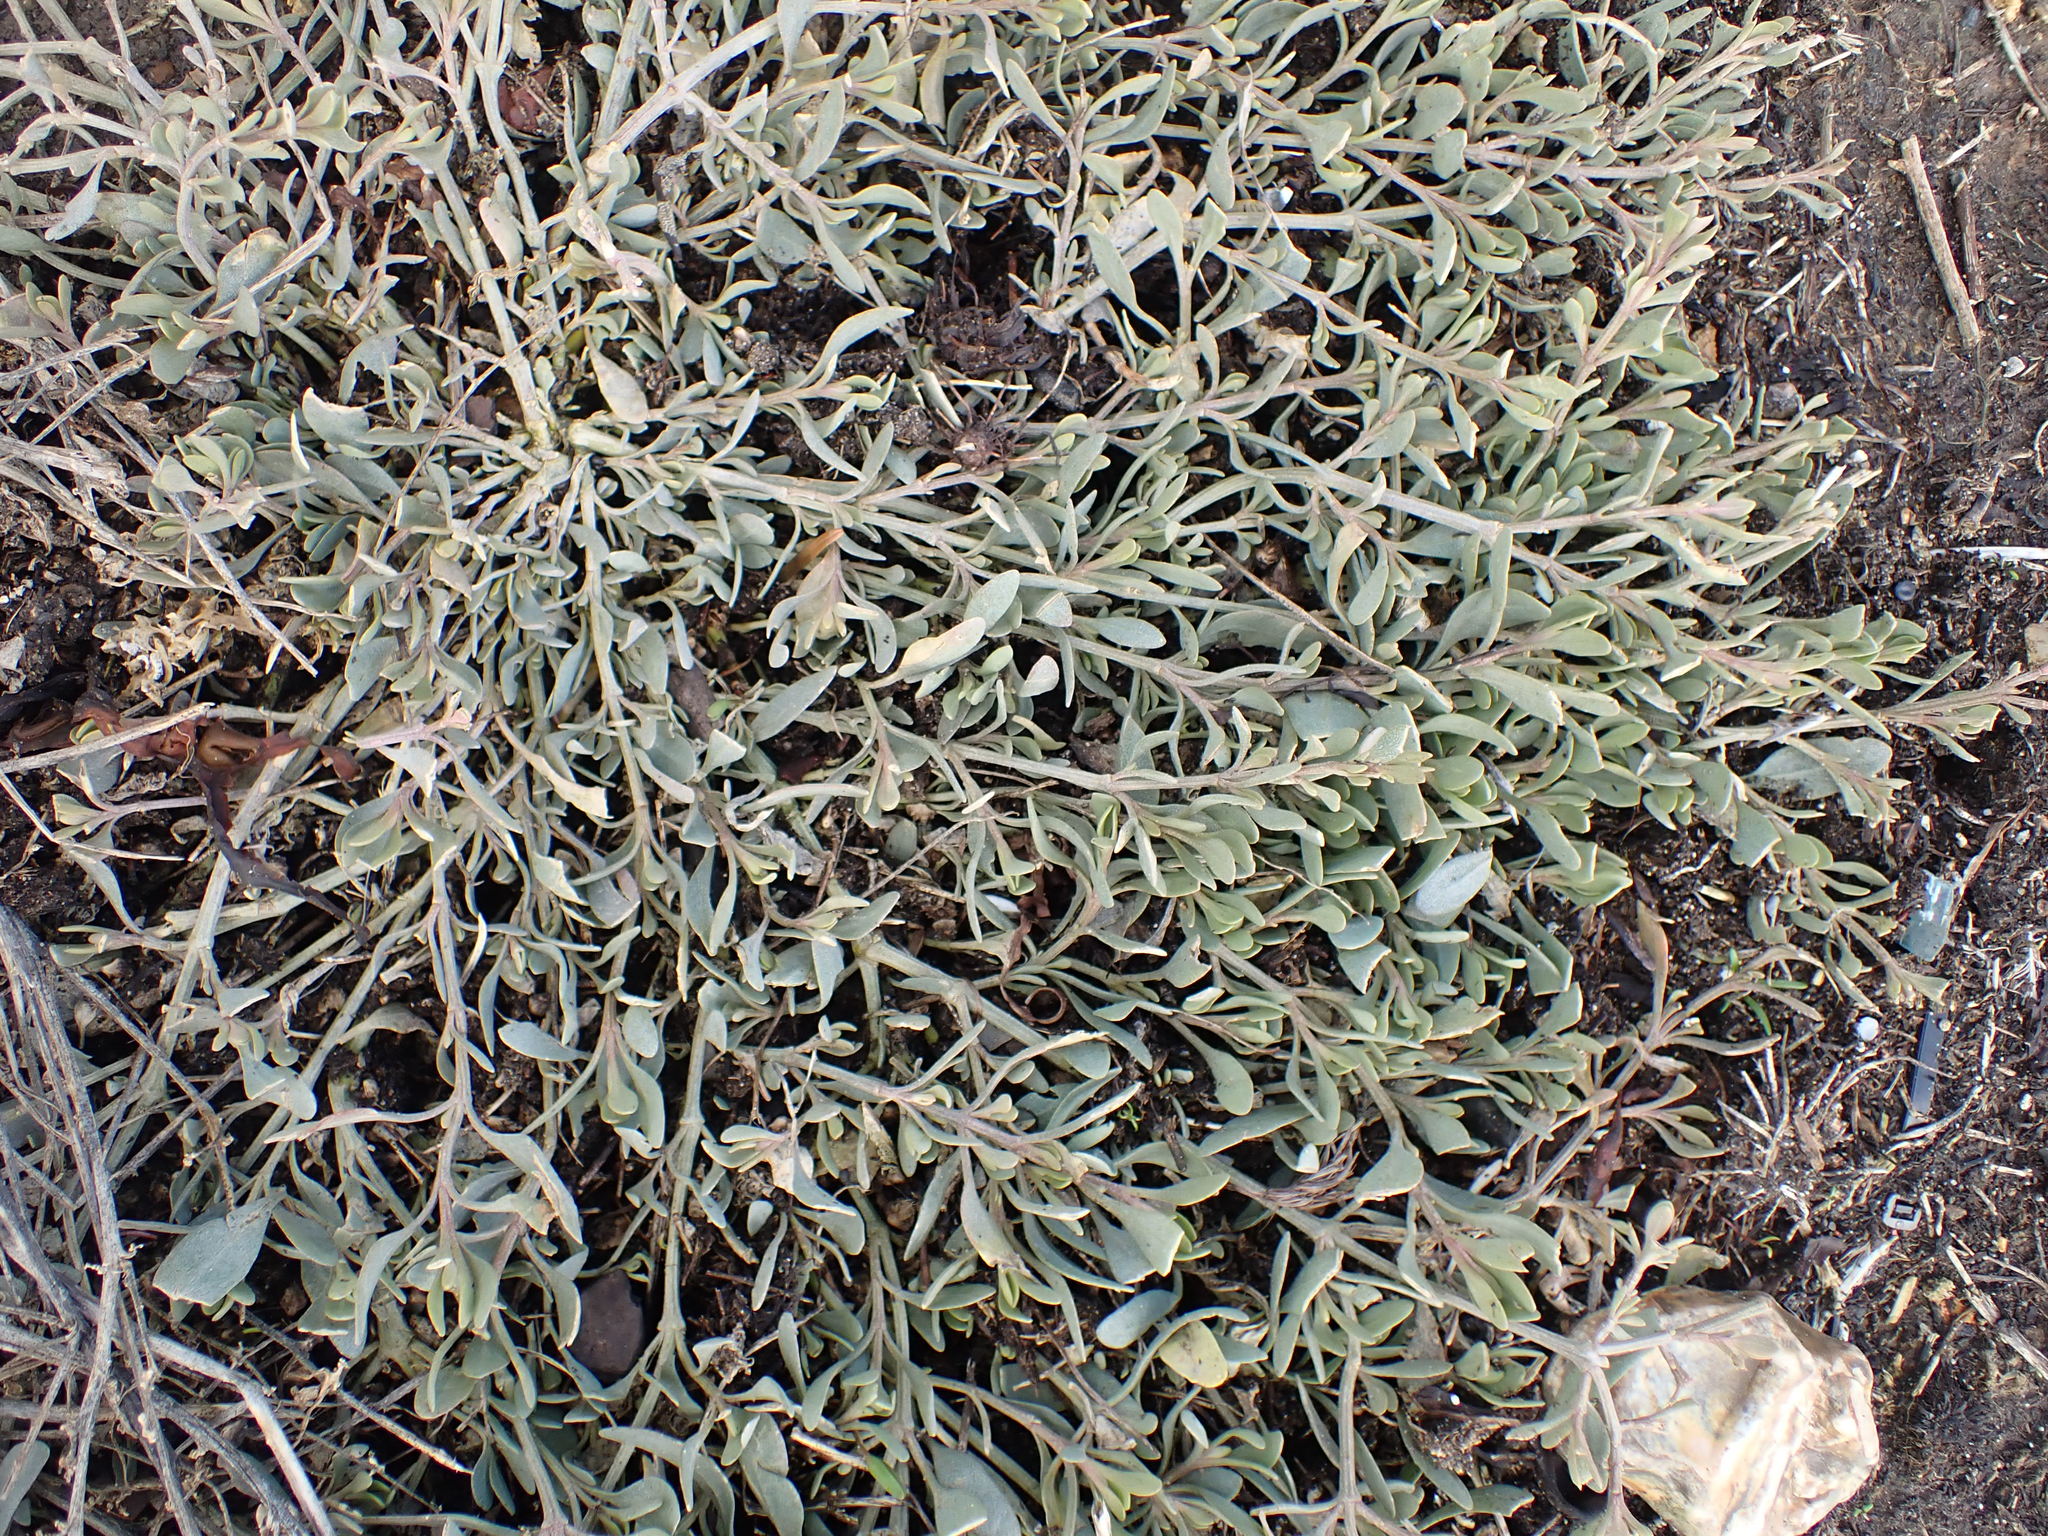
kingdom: Plantae
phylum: Tracheophyta
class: Magnoliopsida
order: Caryophyllales
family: Amaranthaceae
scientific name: Amaranthaceae
